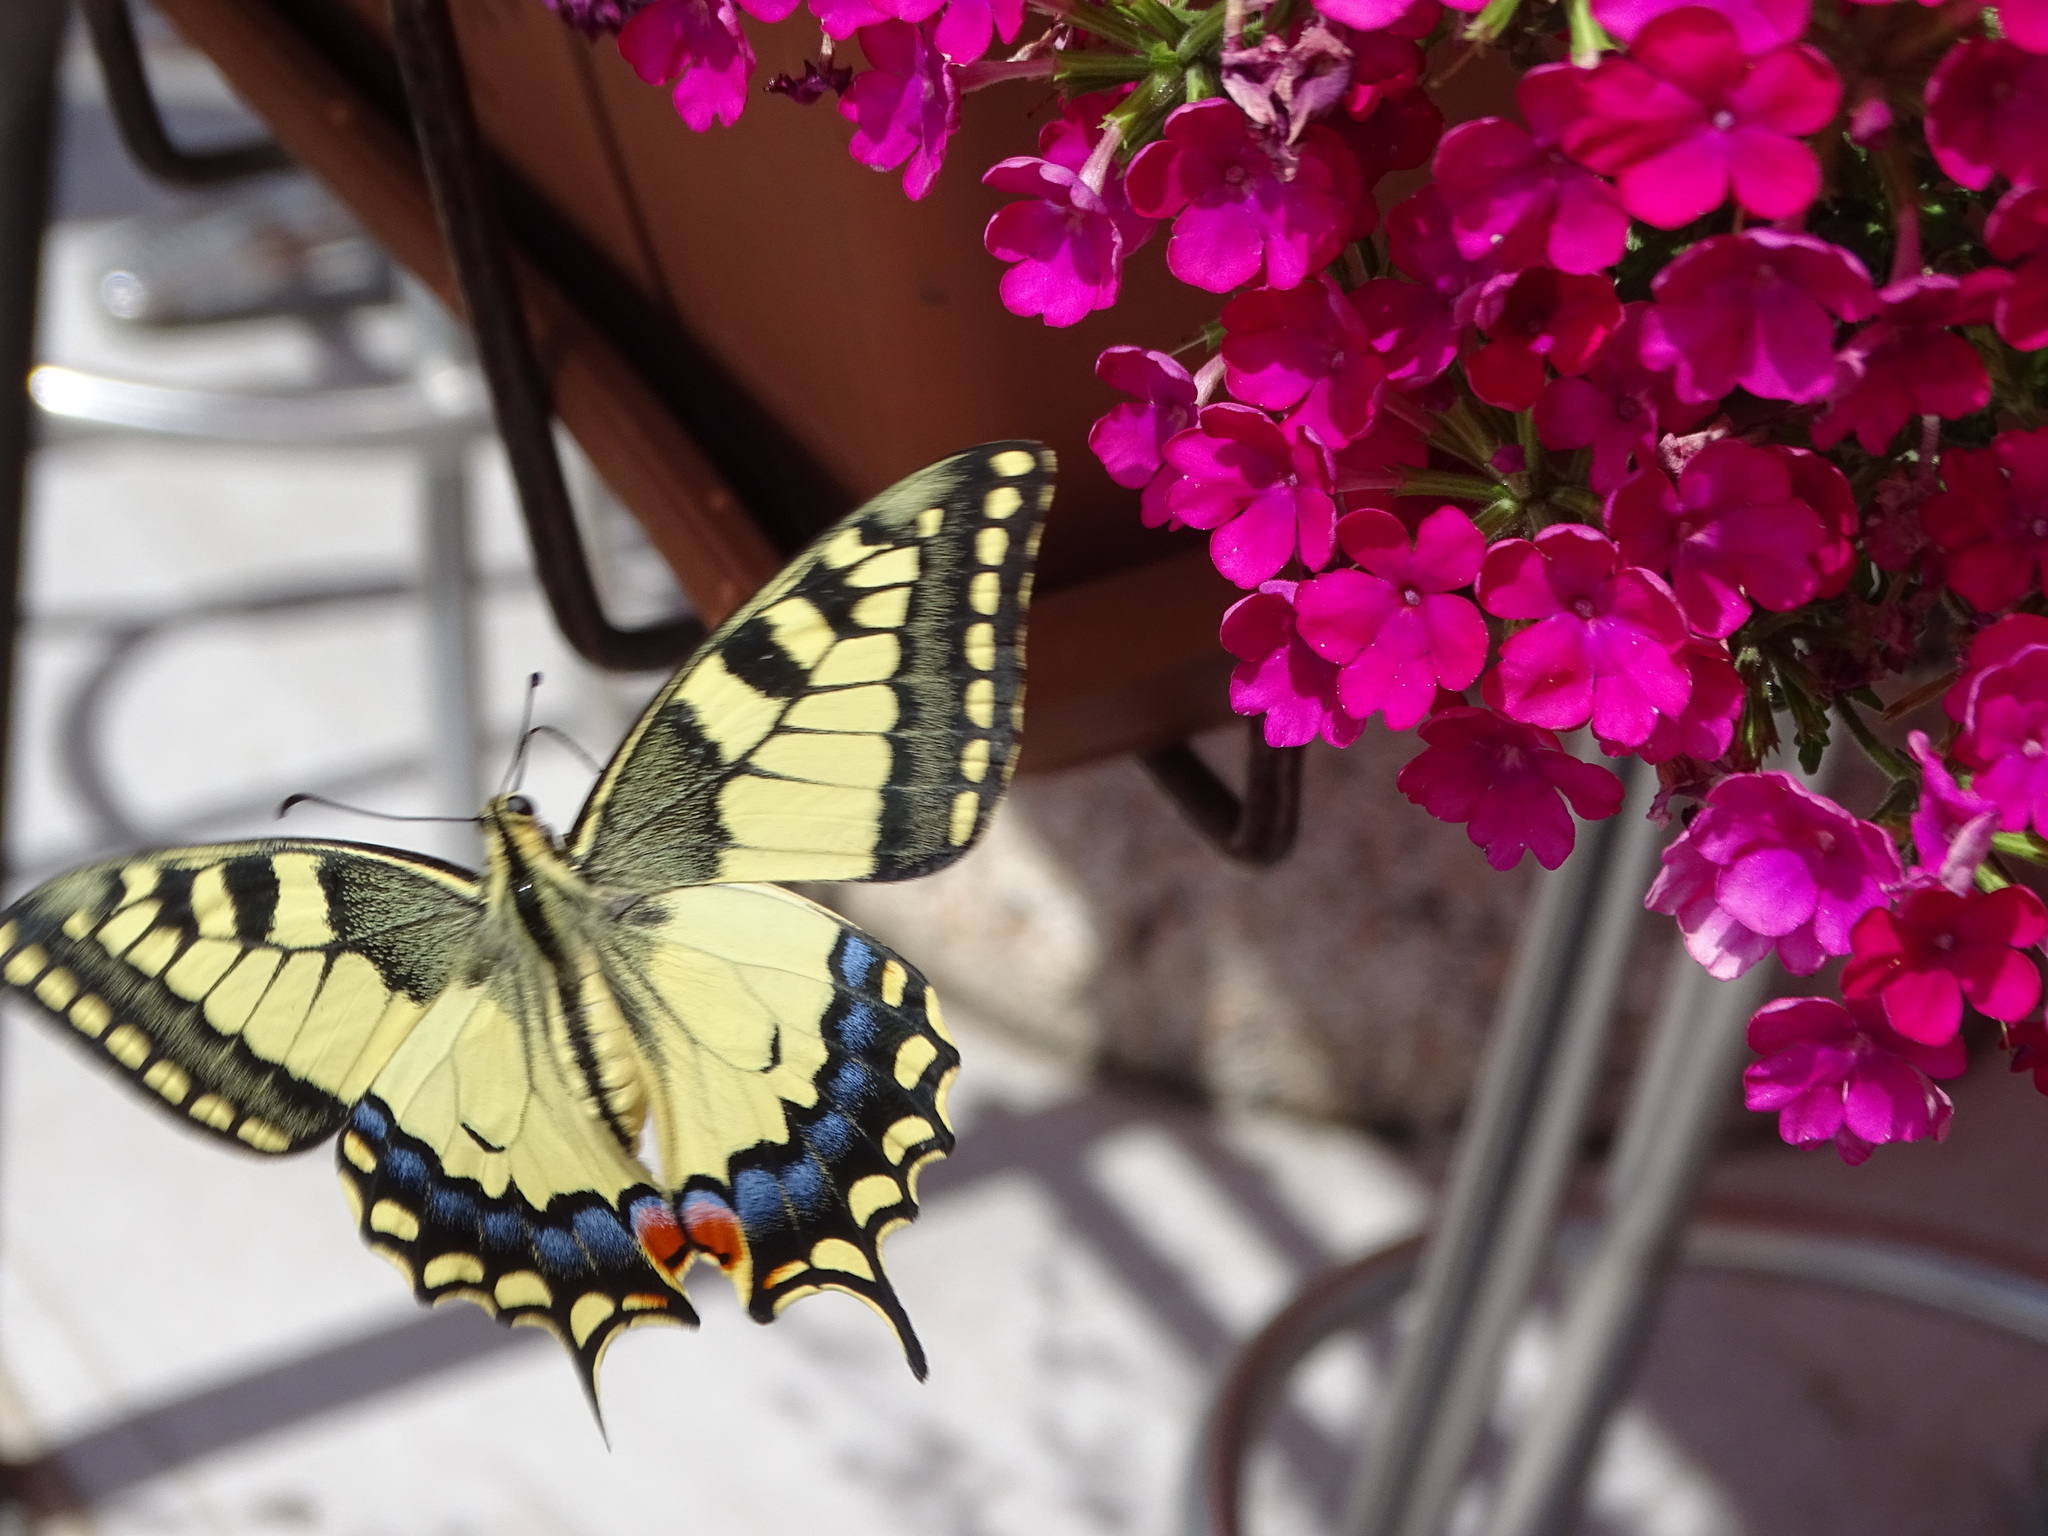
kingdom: Animalia
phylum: Arthropoda
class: Insecta
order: Lepidoptera
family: Papilionidae
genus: Papilio
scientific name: Papilio machaon
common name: Swallowtail
